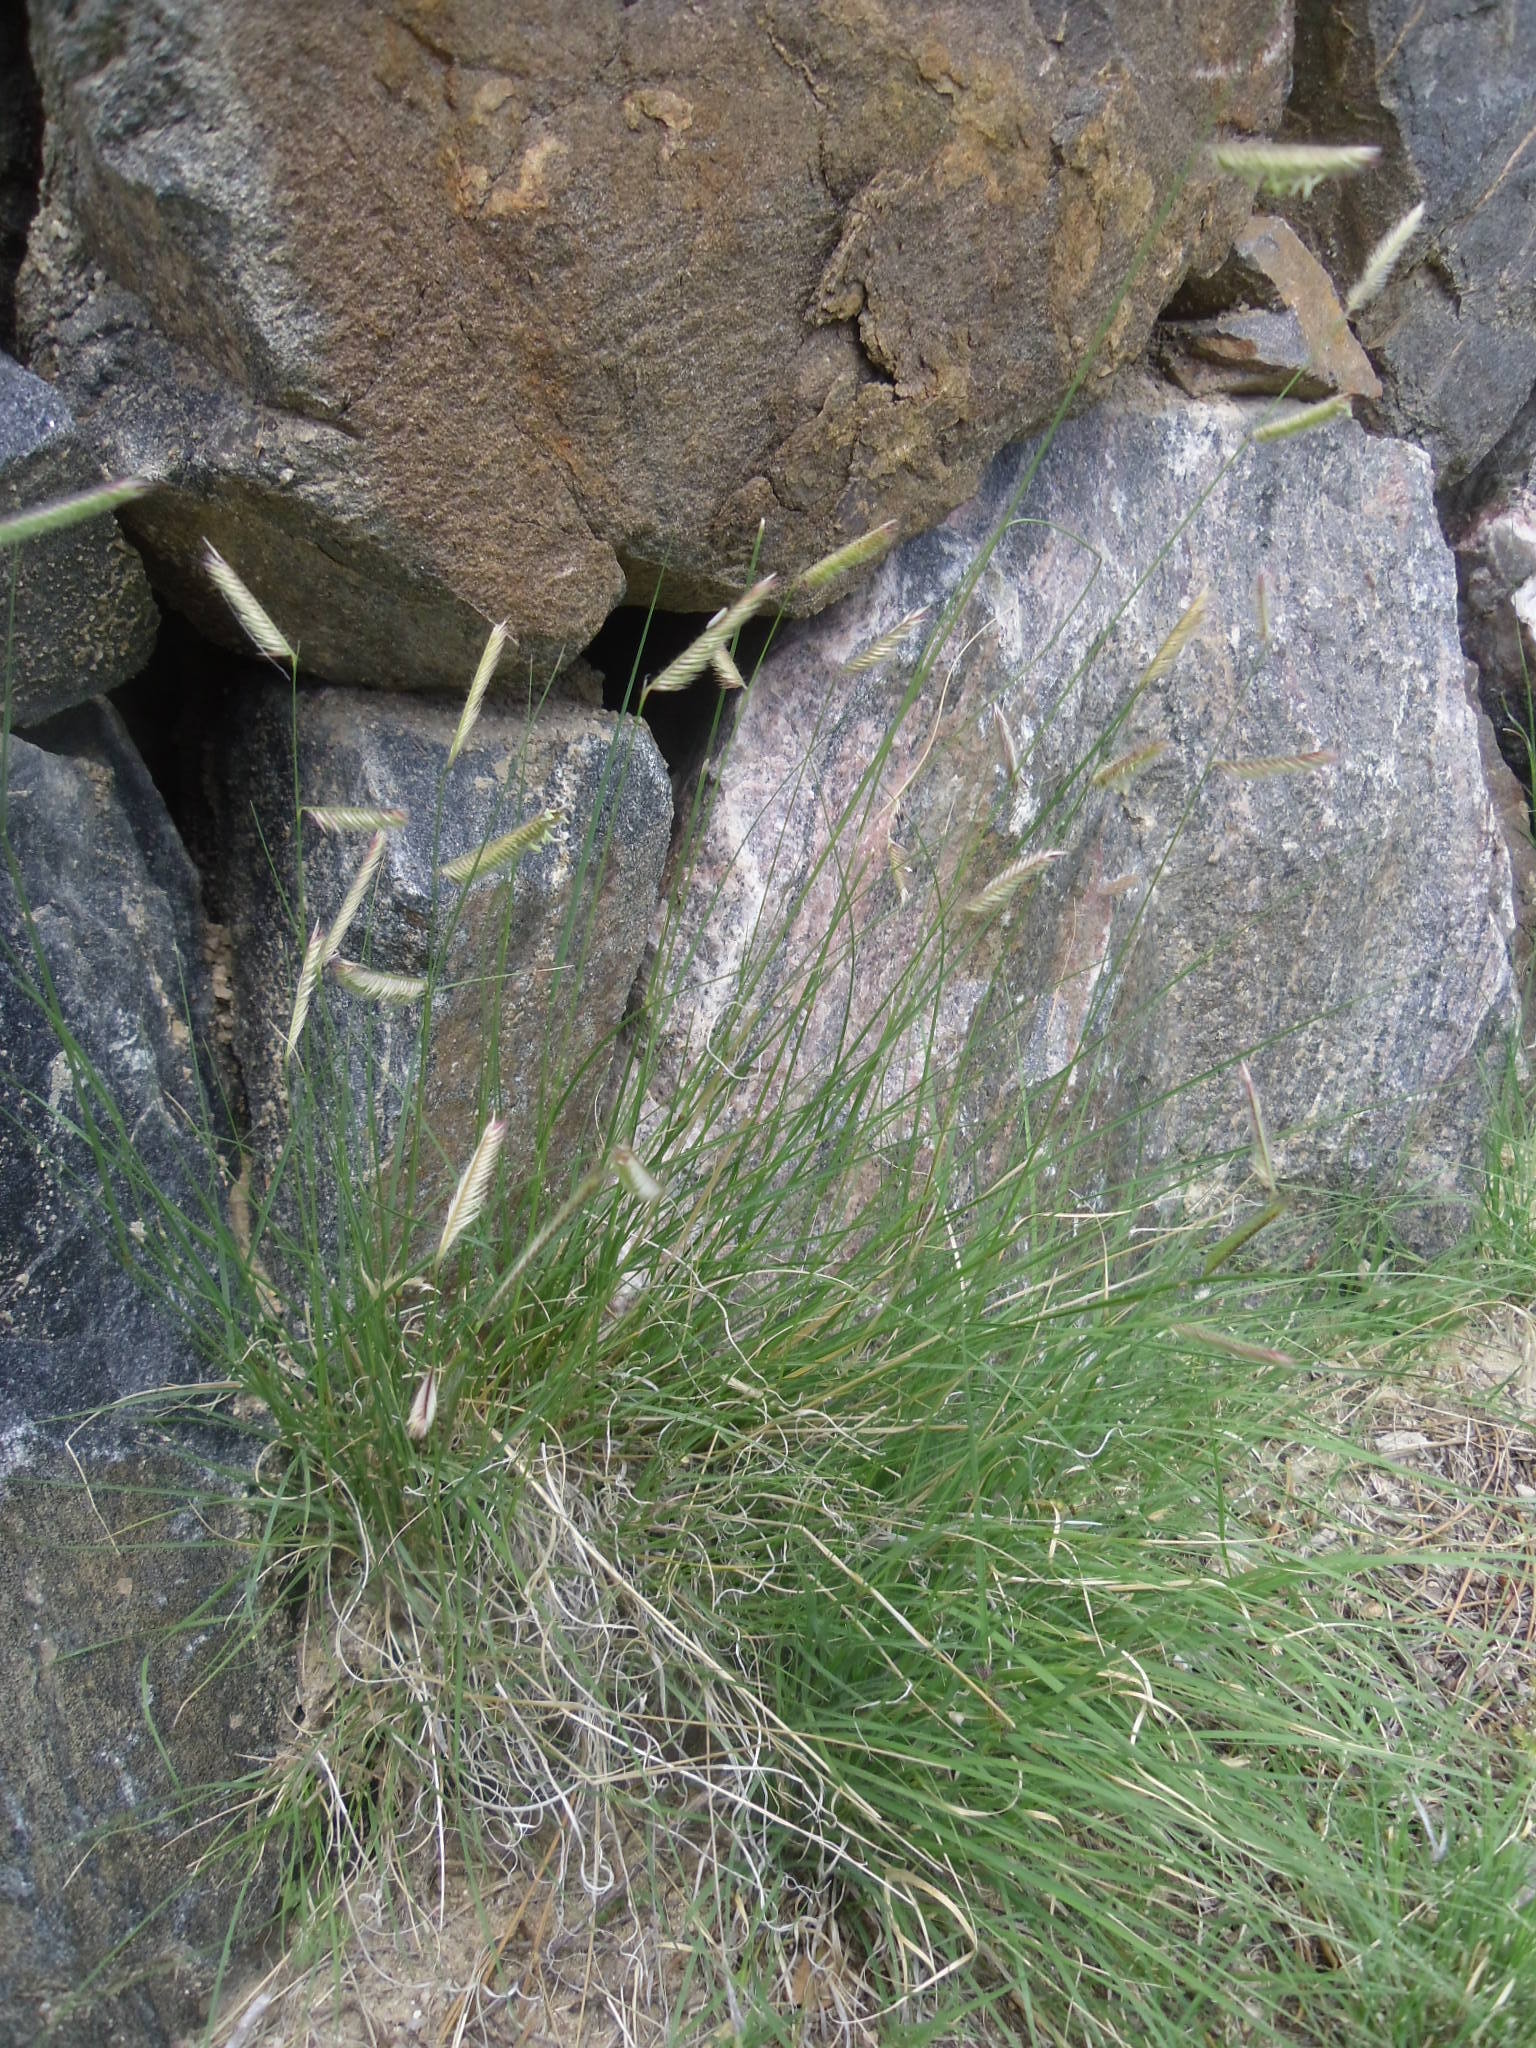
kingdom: Plantae
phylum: Tracheophyta
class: Liliopsida
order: Poales
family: Poaceae
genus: Bouteloua
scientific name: Bouteloua gracilis
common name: Blue grama
